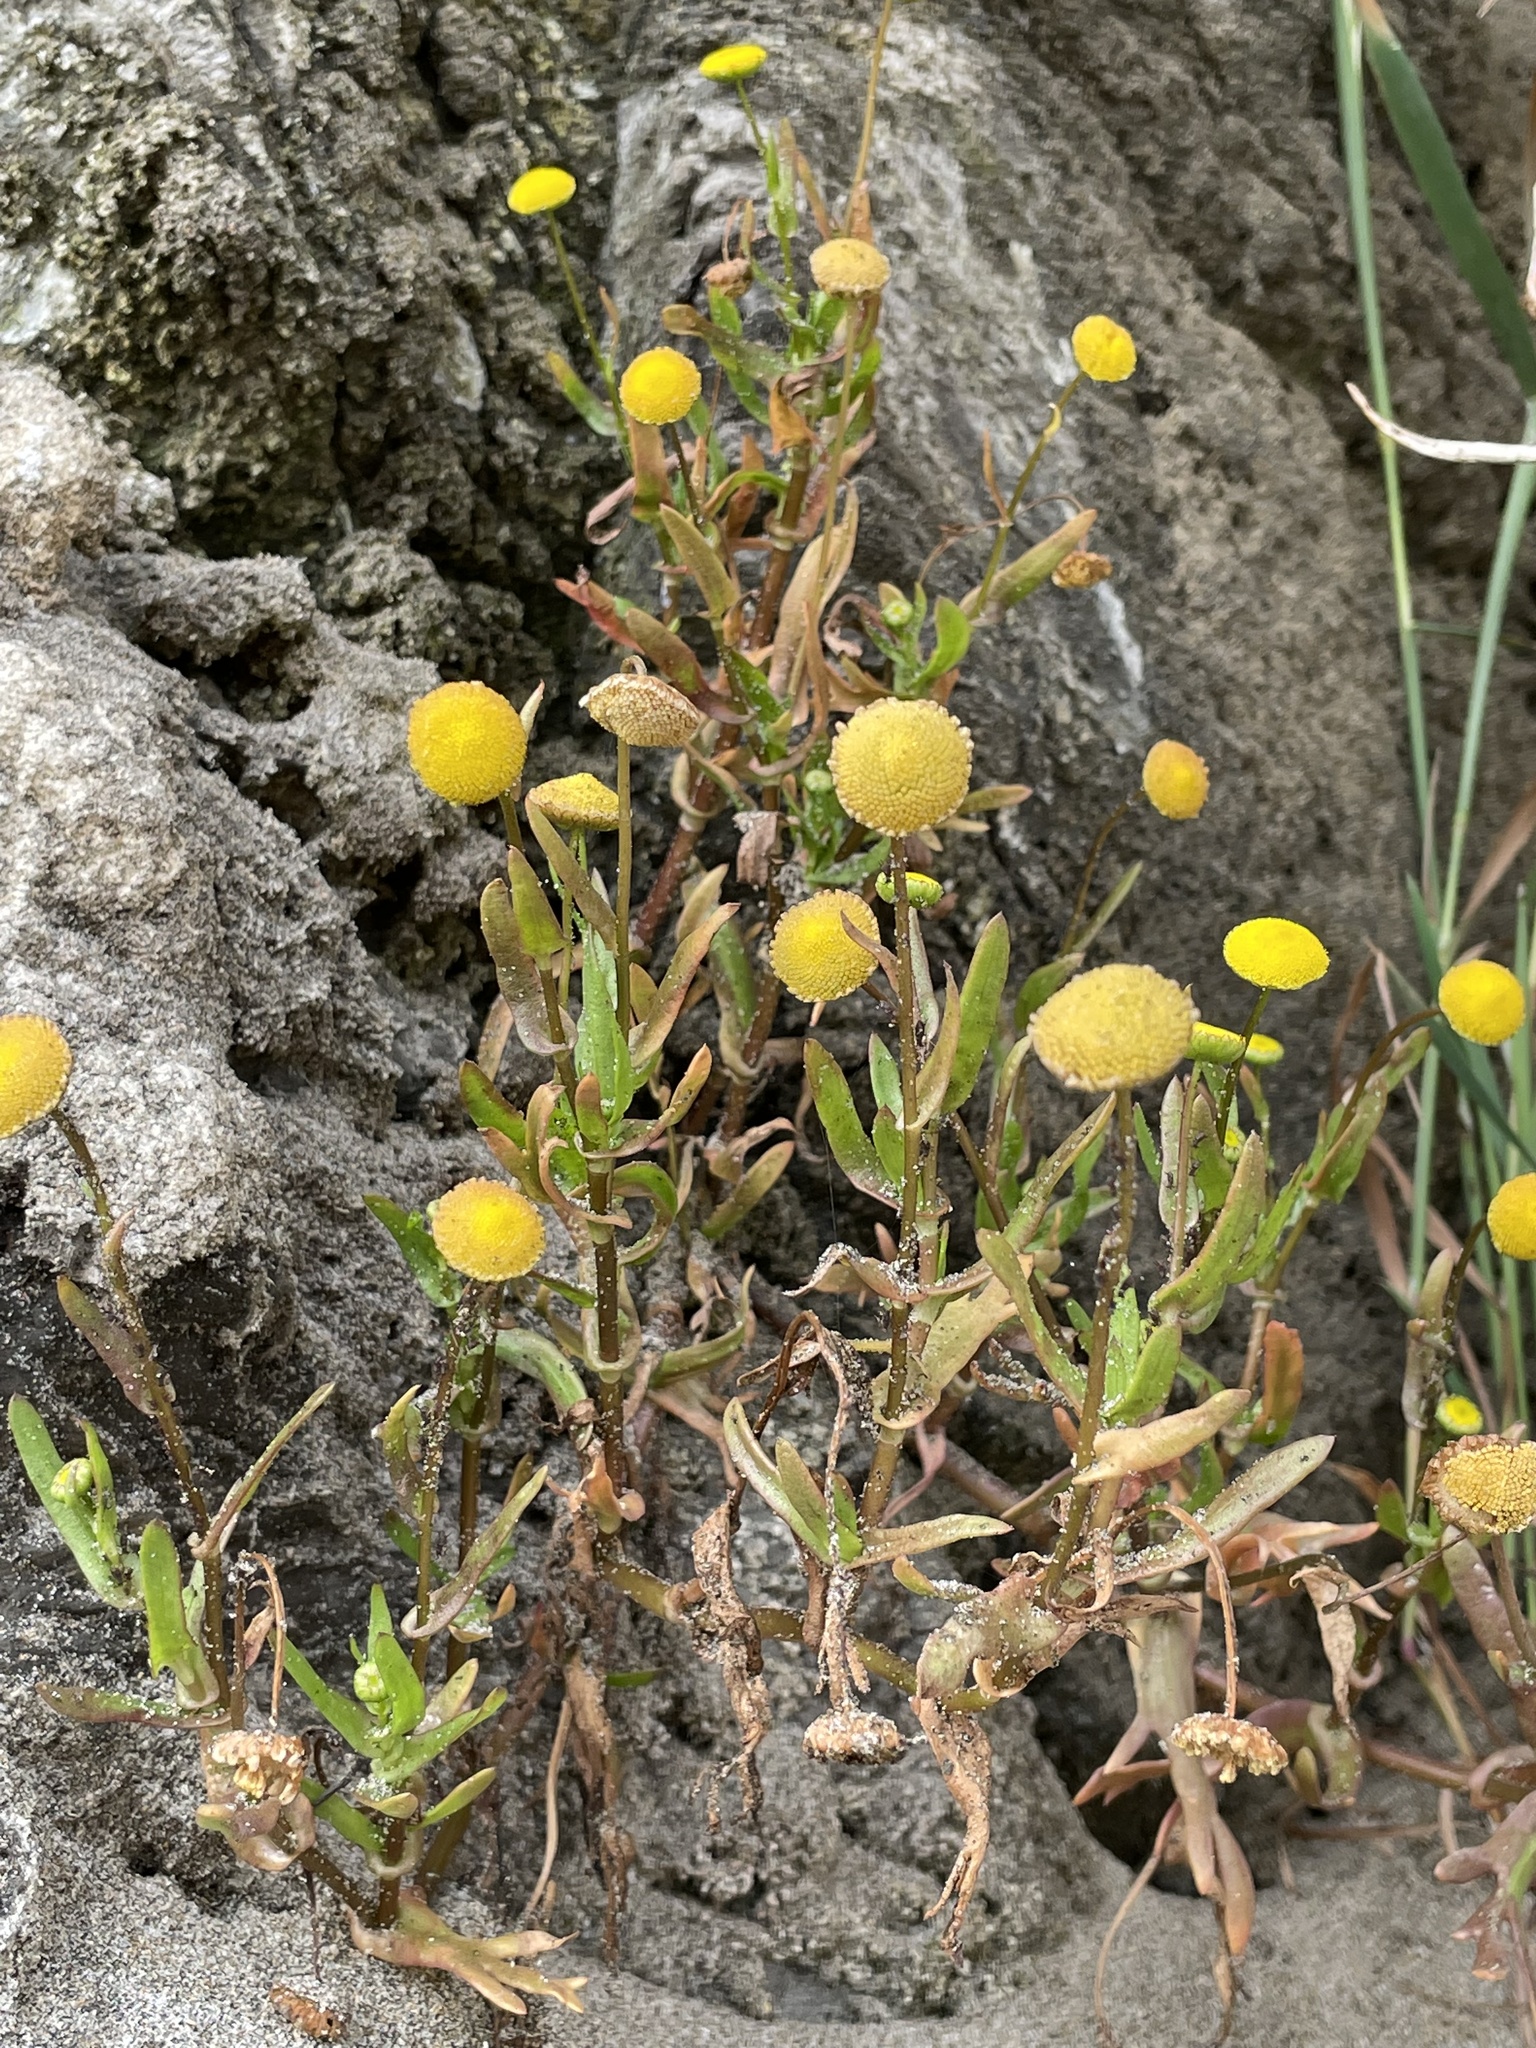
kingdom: Plantae
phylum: Tracheophyta
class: Magnoliopsida
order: Asterales
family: Asteraceae
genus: Cotula
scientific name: Cotula coronopifolia
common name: Buttonweed
